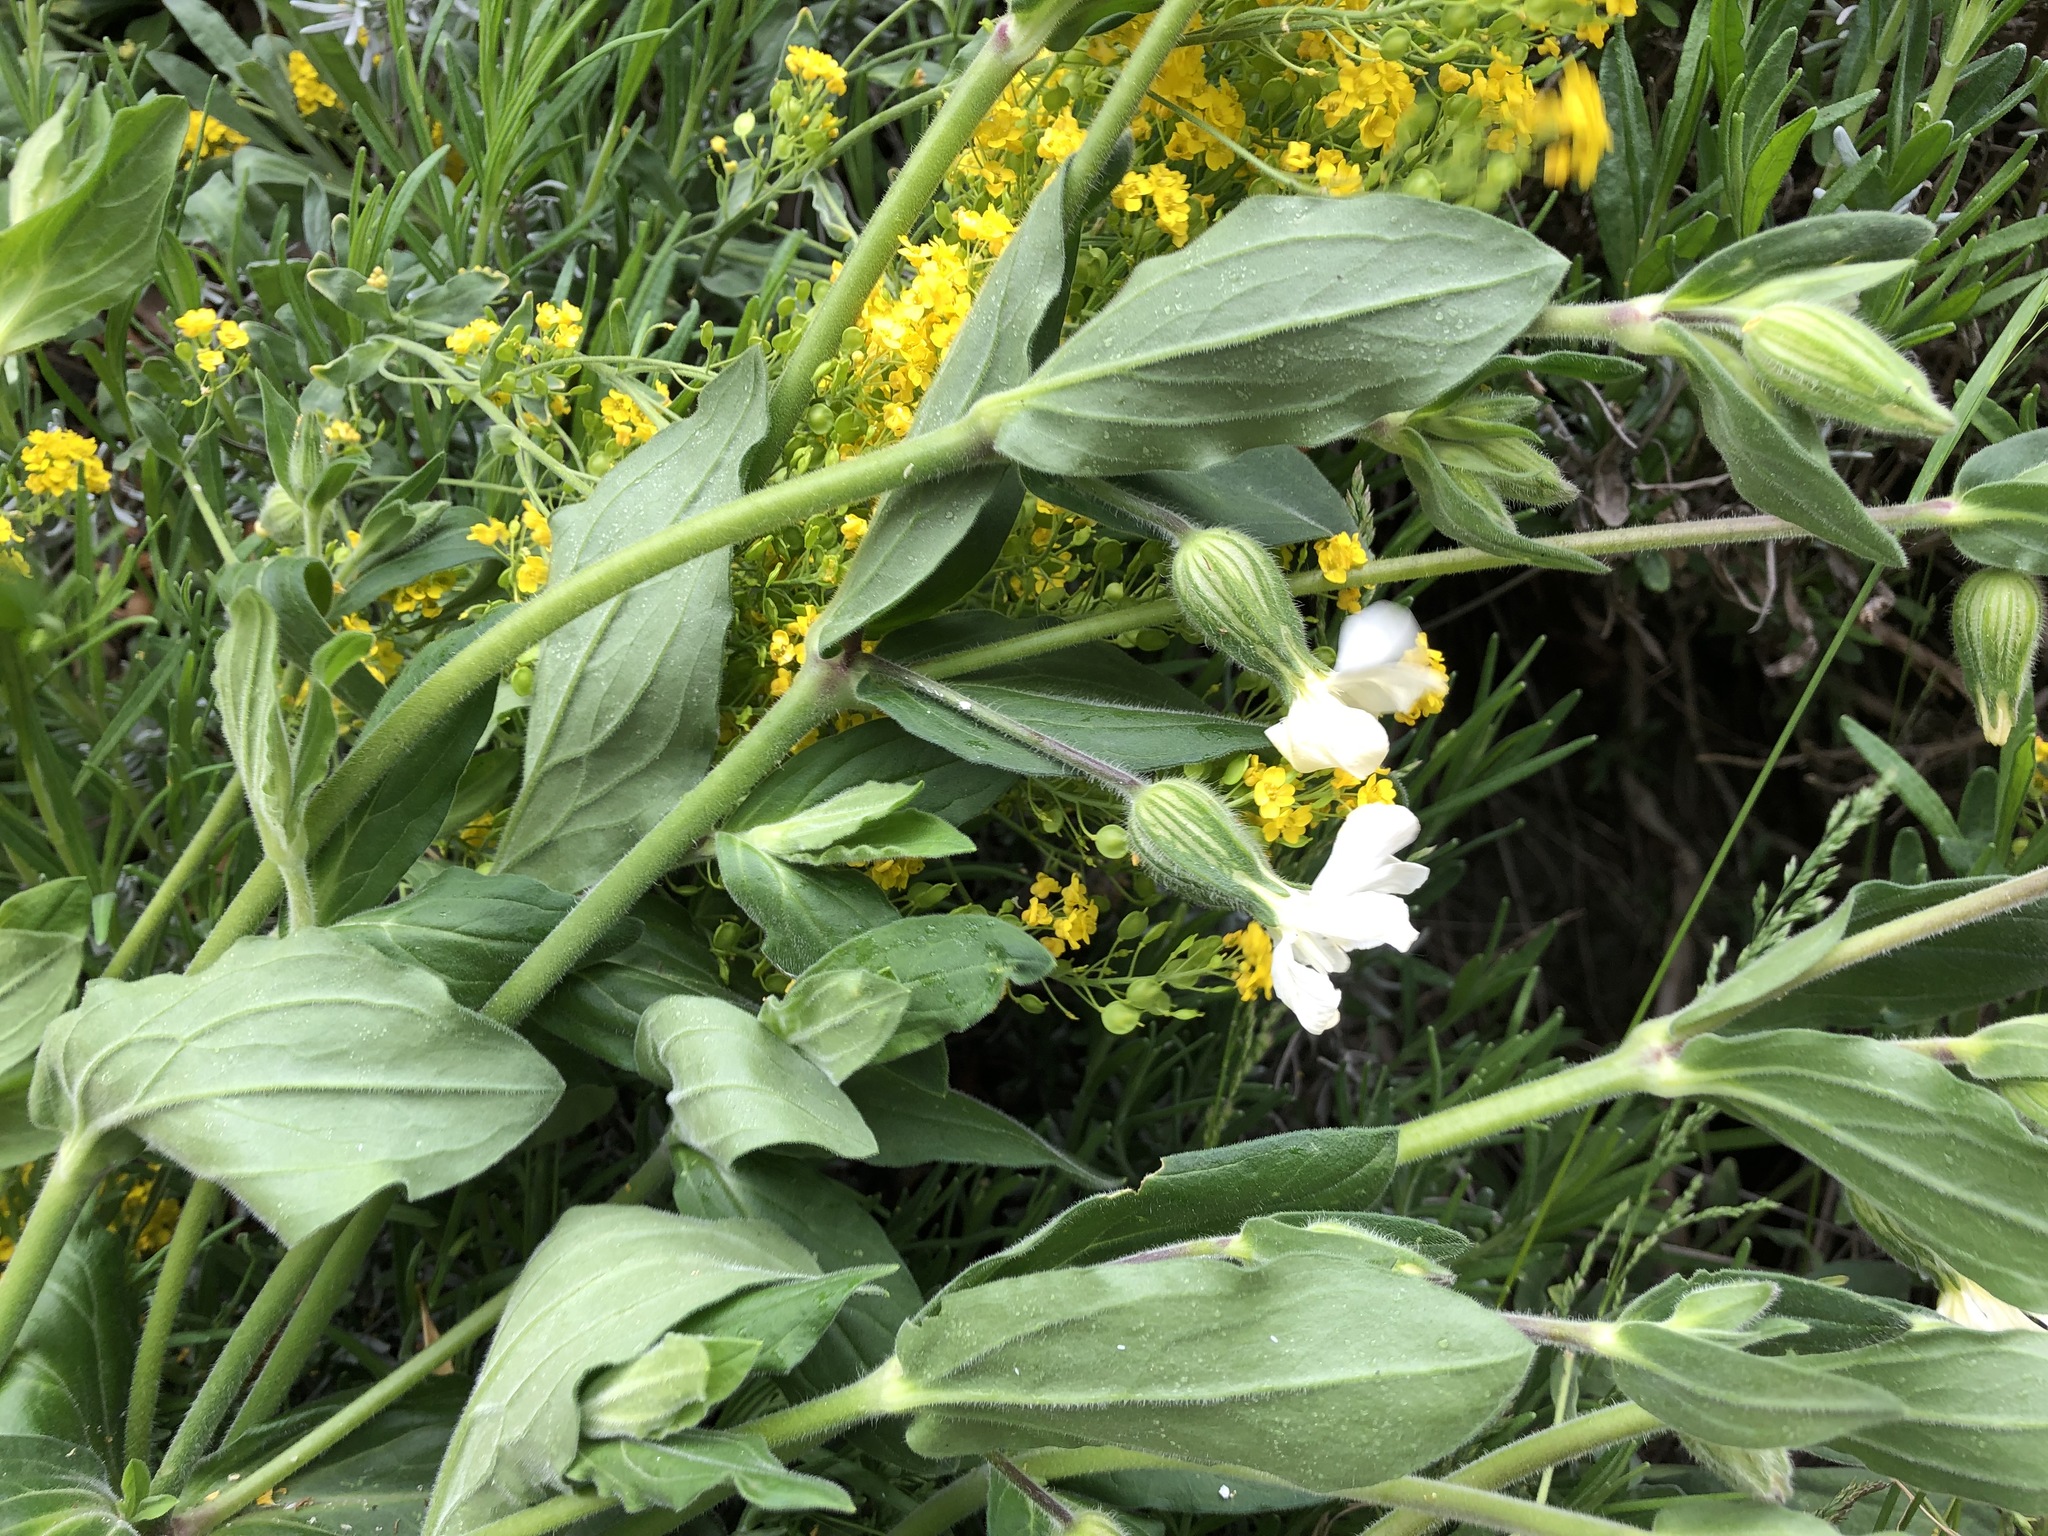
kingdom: Plantae
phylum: Tracheophyta
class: Magnoliopsida
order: Caryophyllales
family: Caryophyllaceae
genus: Silene
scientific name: Silene latifolia
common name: White campion
